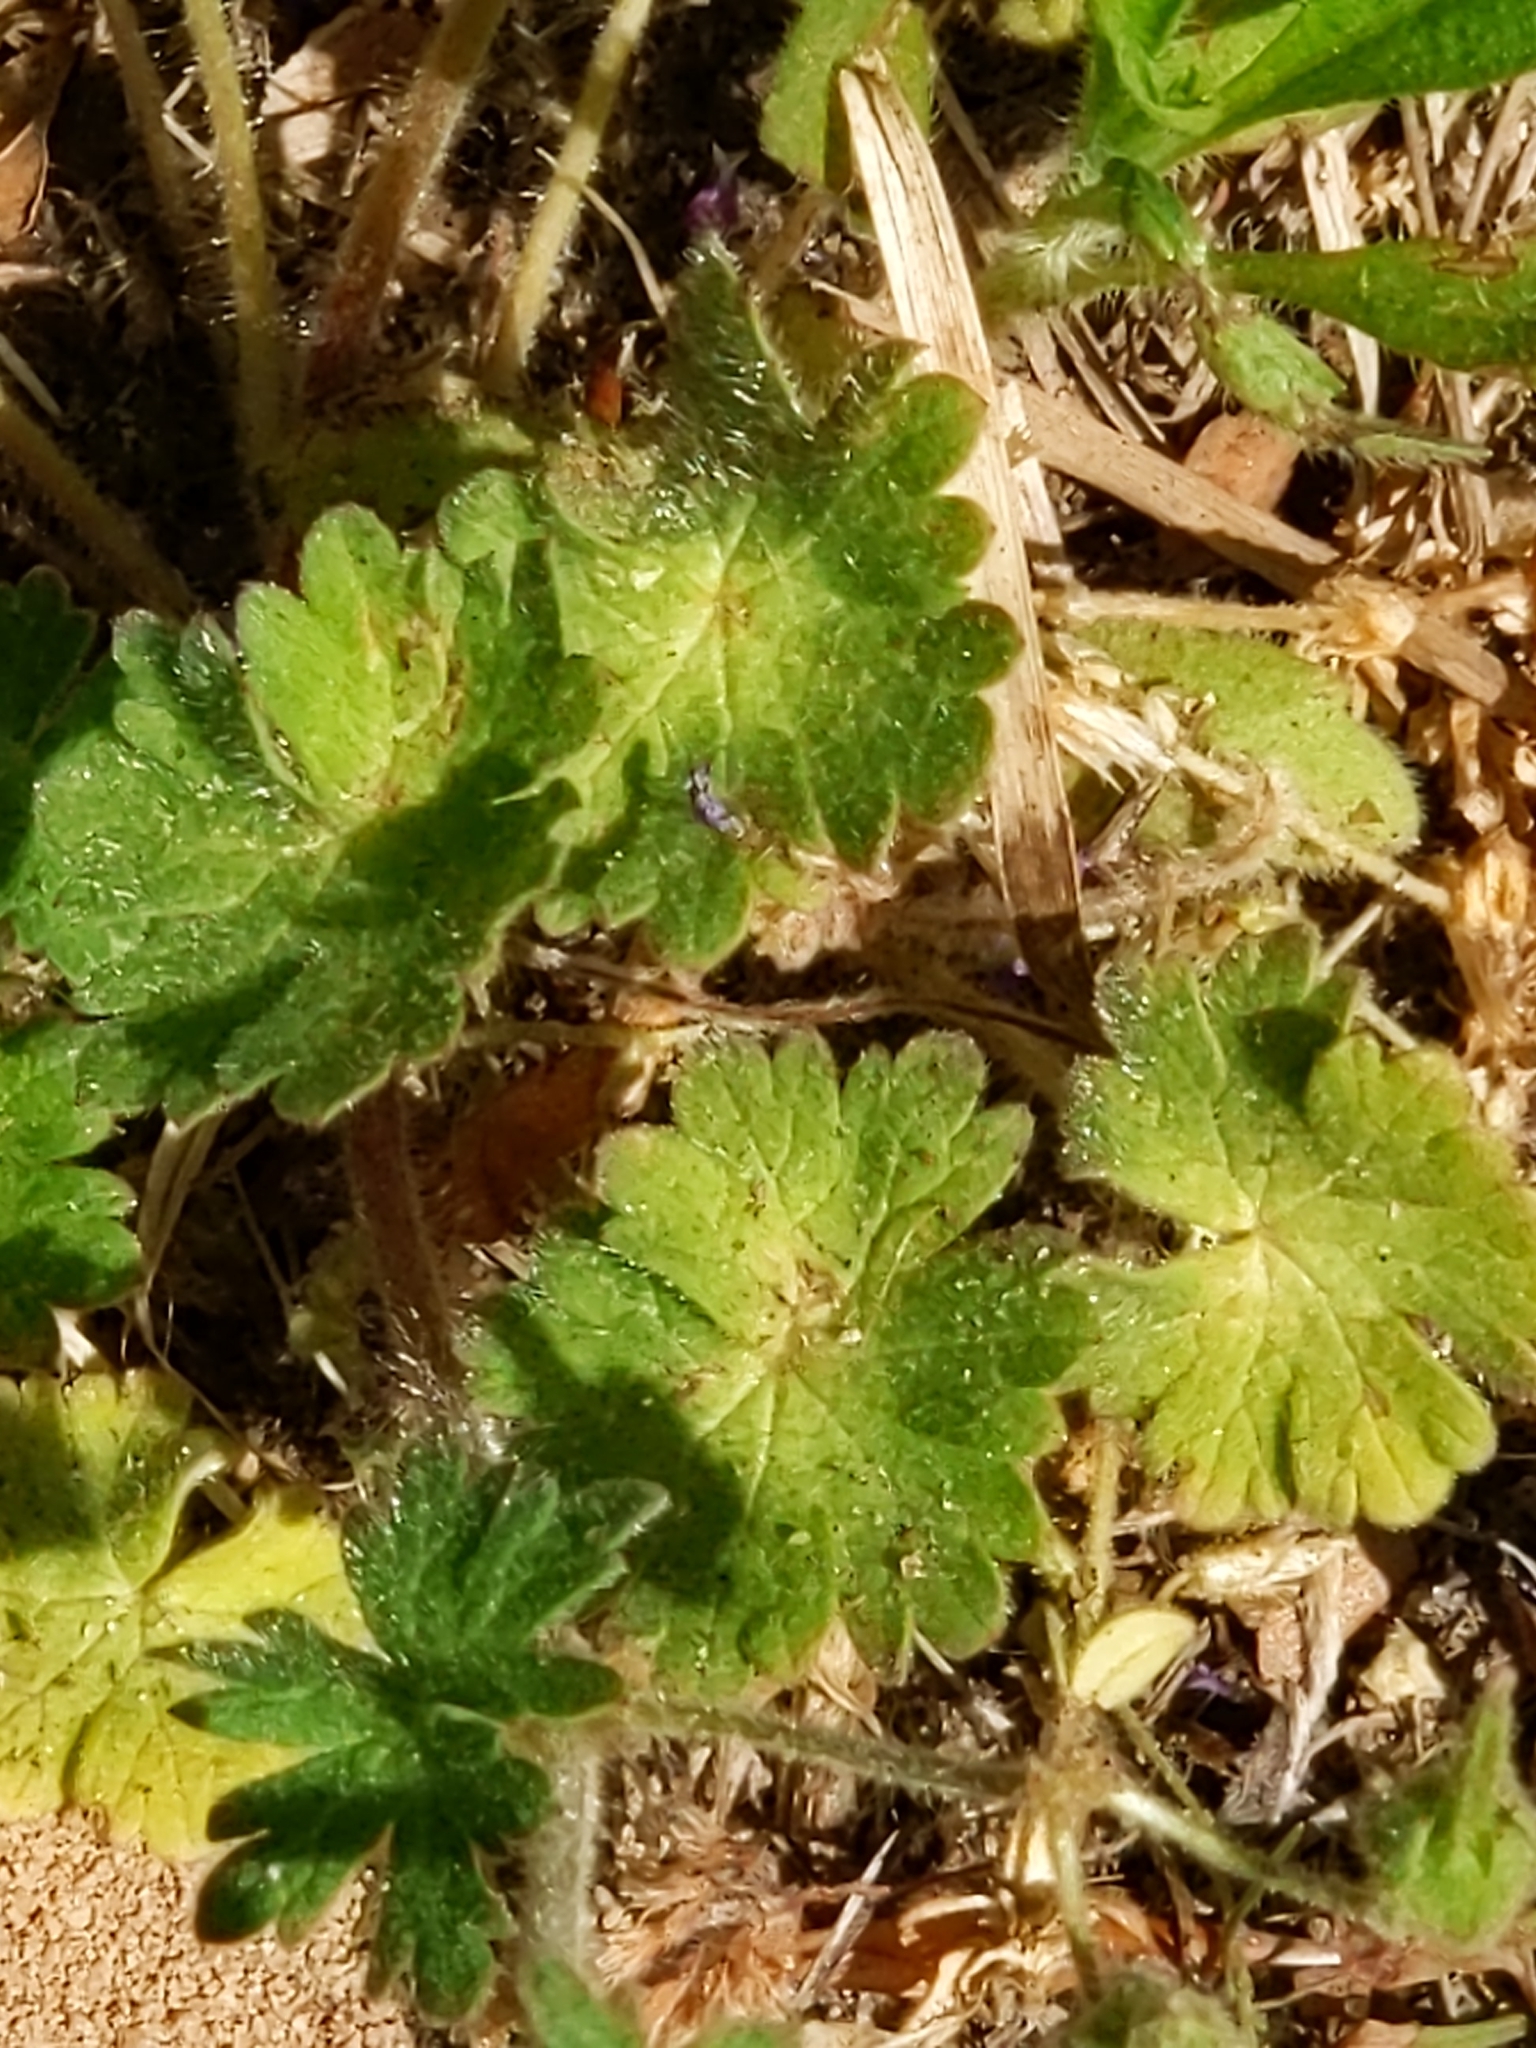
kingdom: Plantae
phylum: Tracheophyta
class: Magnoliopsida
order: Geraniales
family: Geraniaceae
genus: Geranium
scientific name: Geranium molle
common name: Dove's-foot crane's-bill
